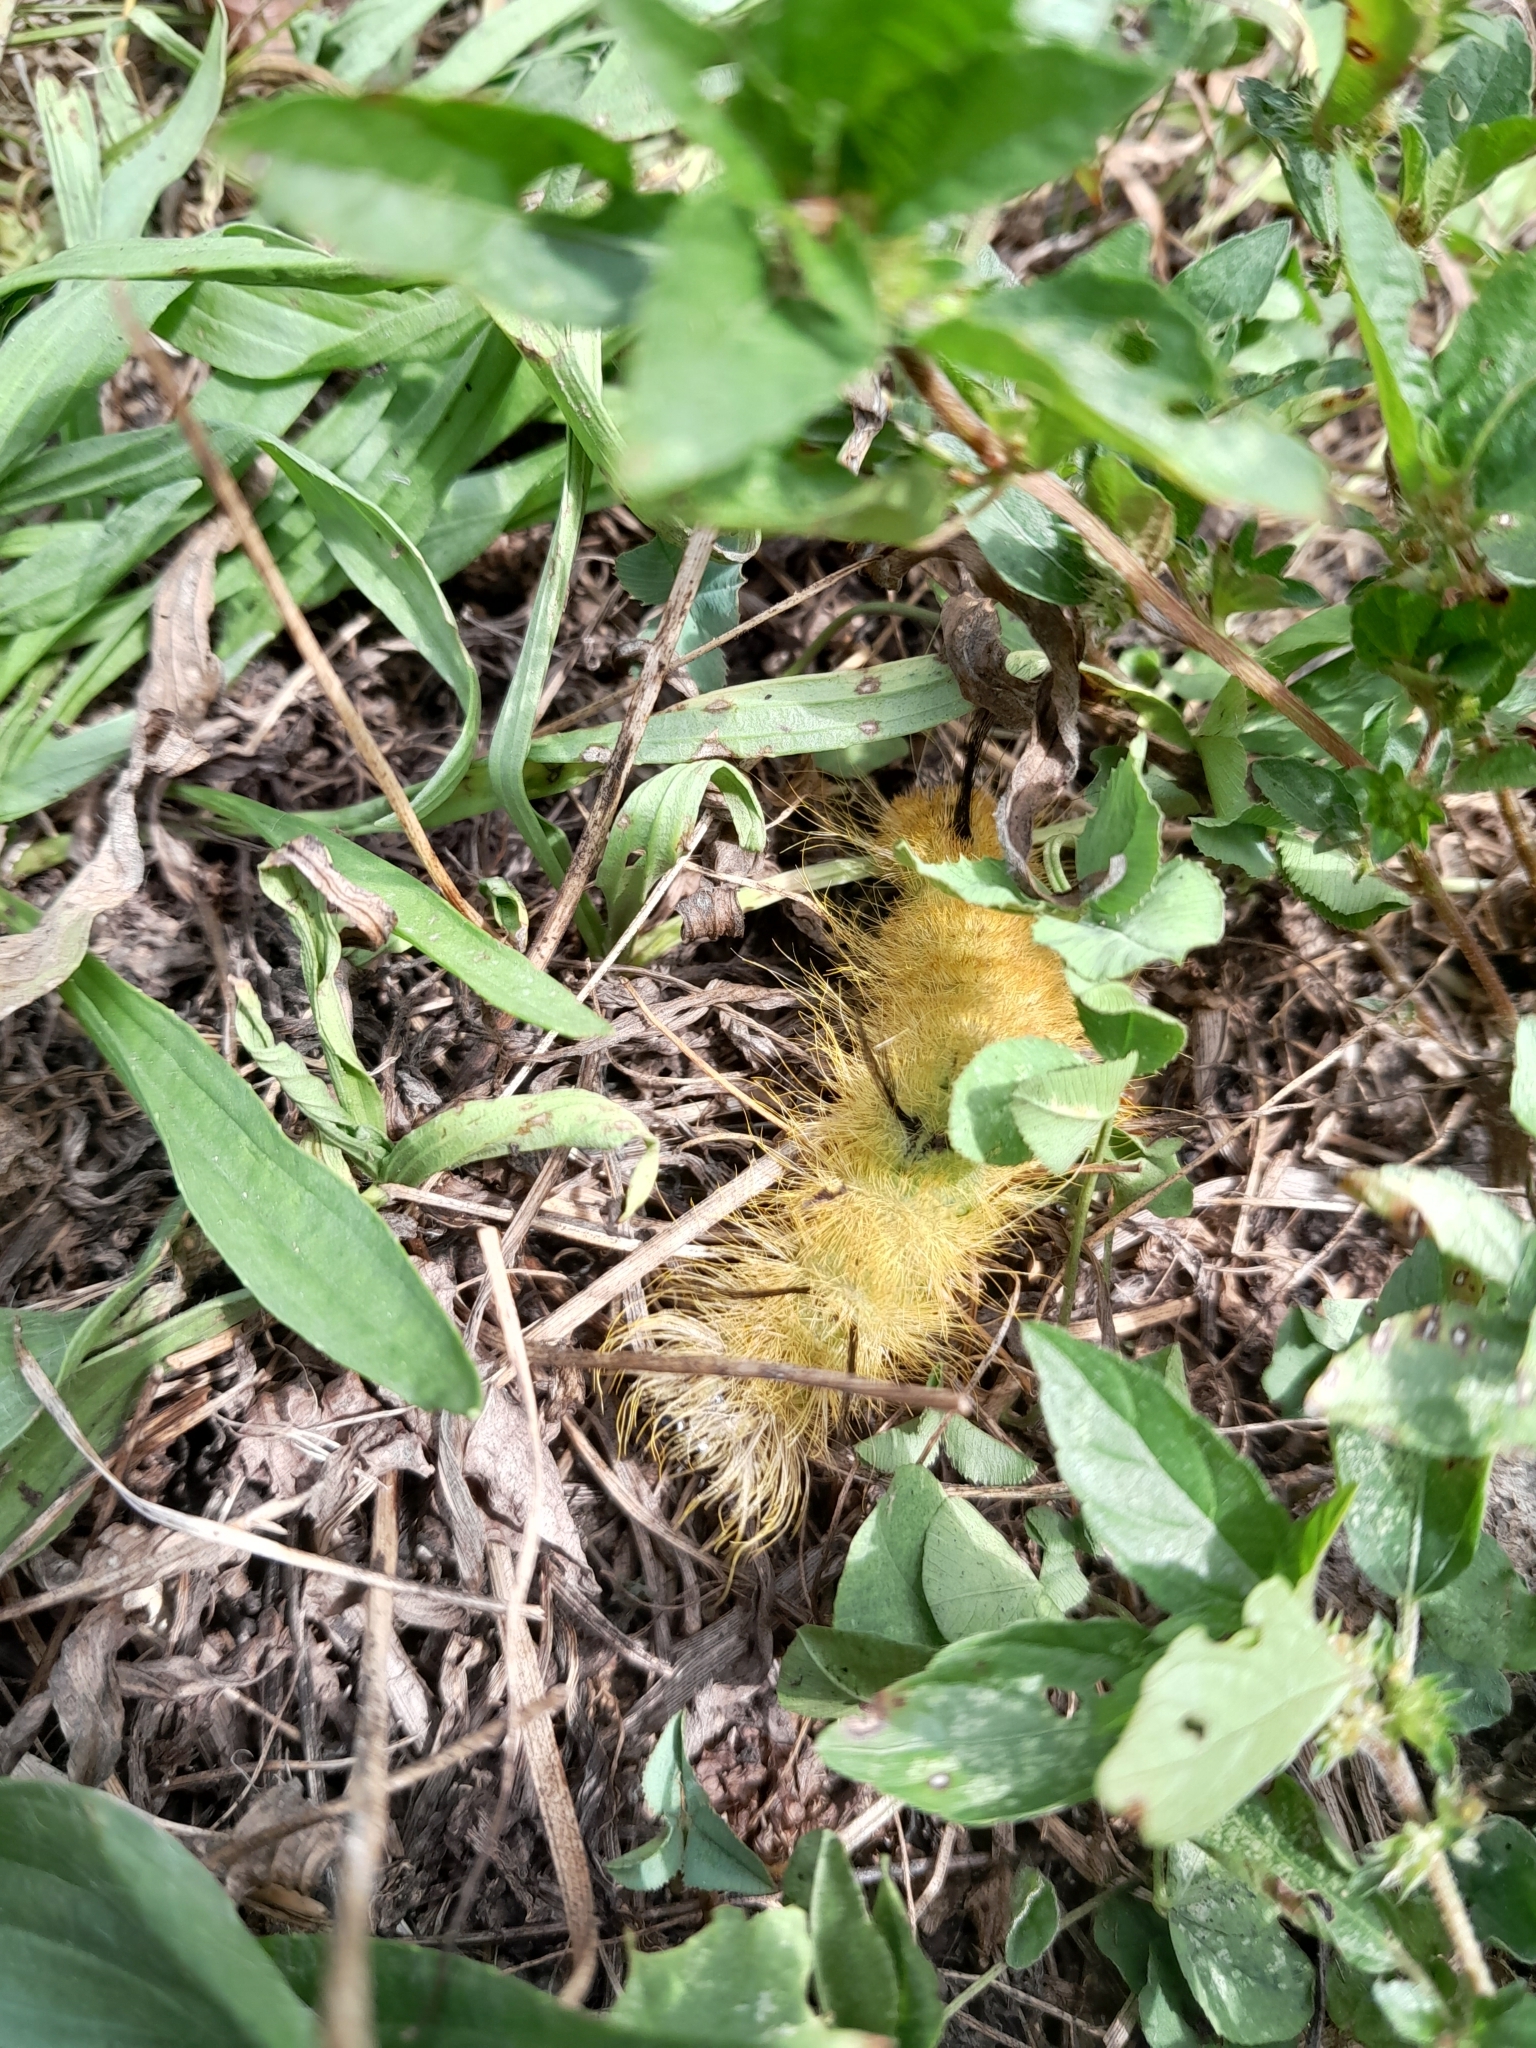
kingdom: Animalia
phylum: Arthropoda
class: Insecta
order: Lepidoptera
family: Noctuidae
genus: Acronicta
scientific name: Acronicta americana
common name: American dagger
